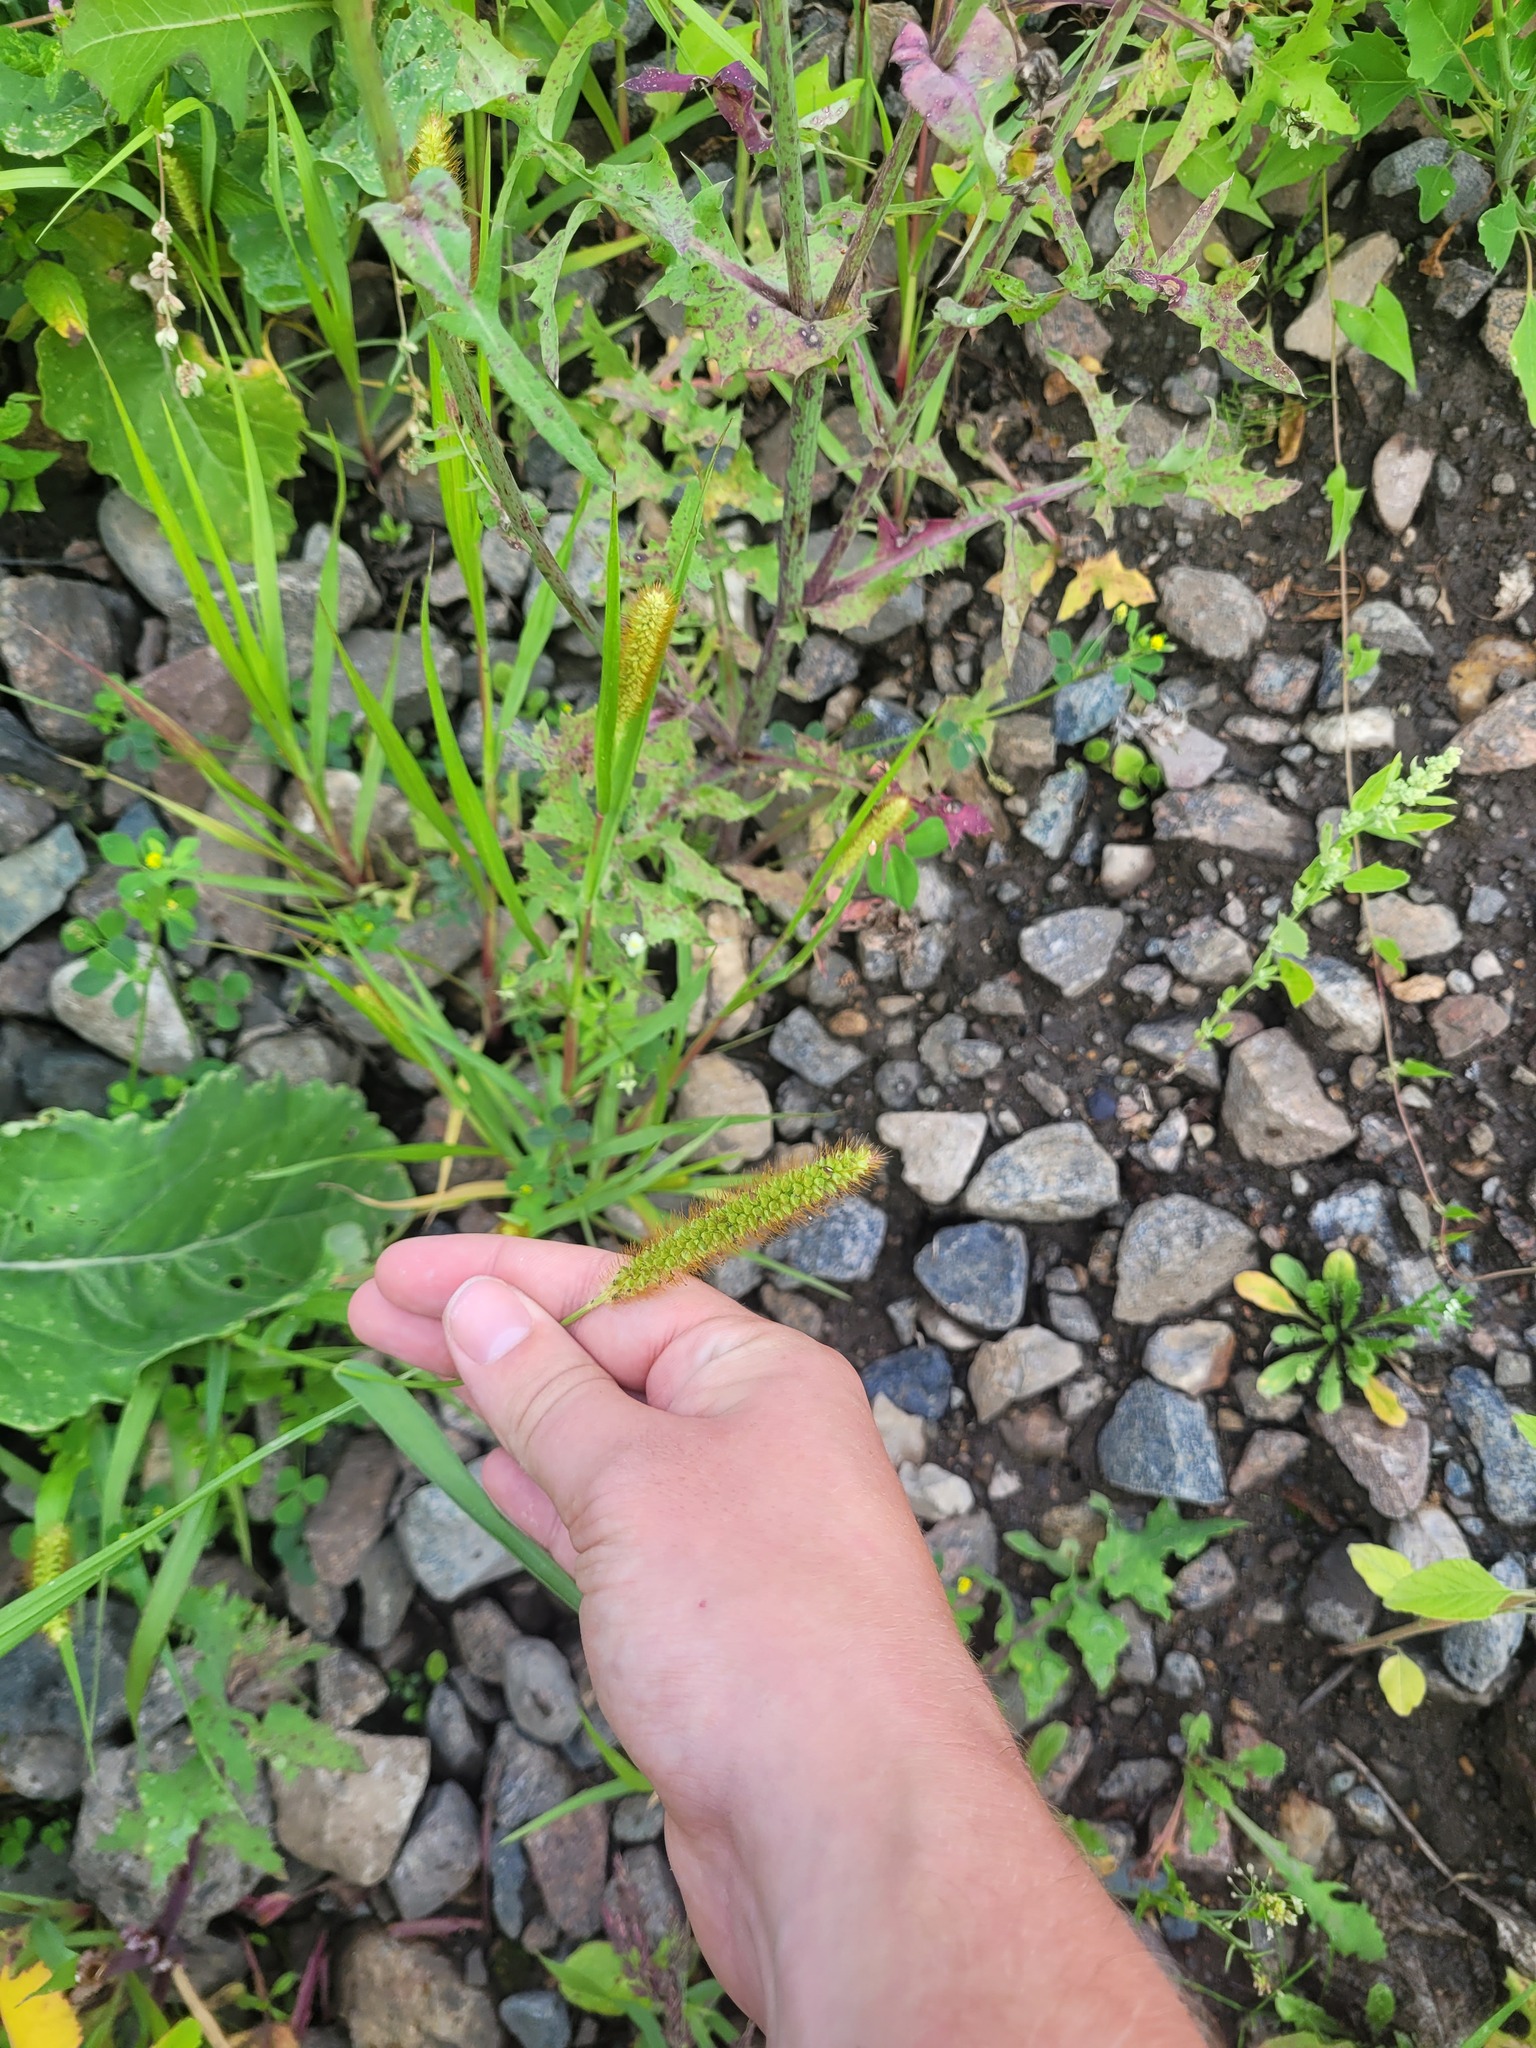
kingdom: Plantae
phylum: Tracheophyta
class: Liliopsida
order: Poales
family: Poaceae
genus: Setaria
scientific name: Setaria pumila
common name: Yellow bristle-grass
